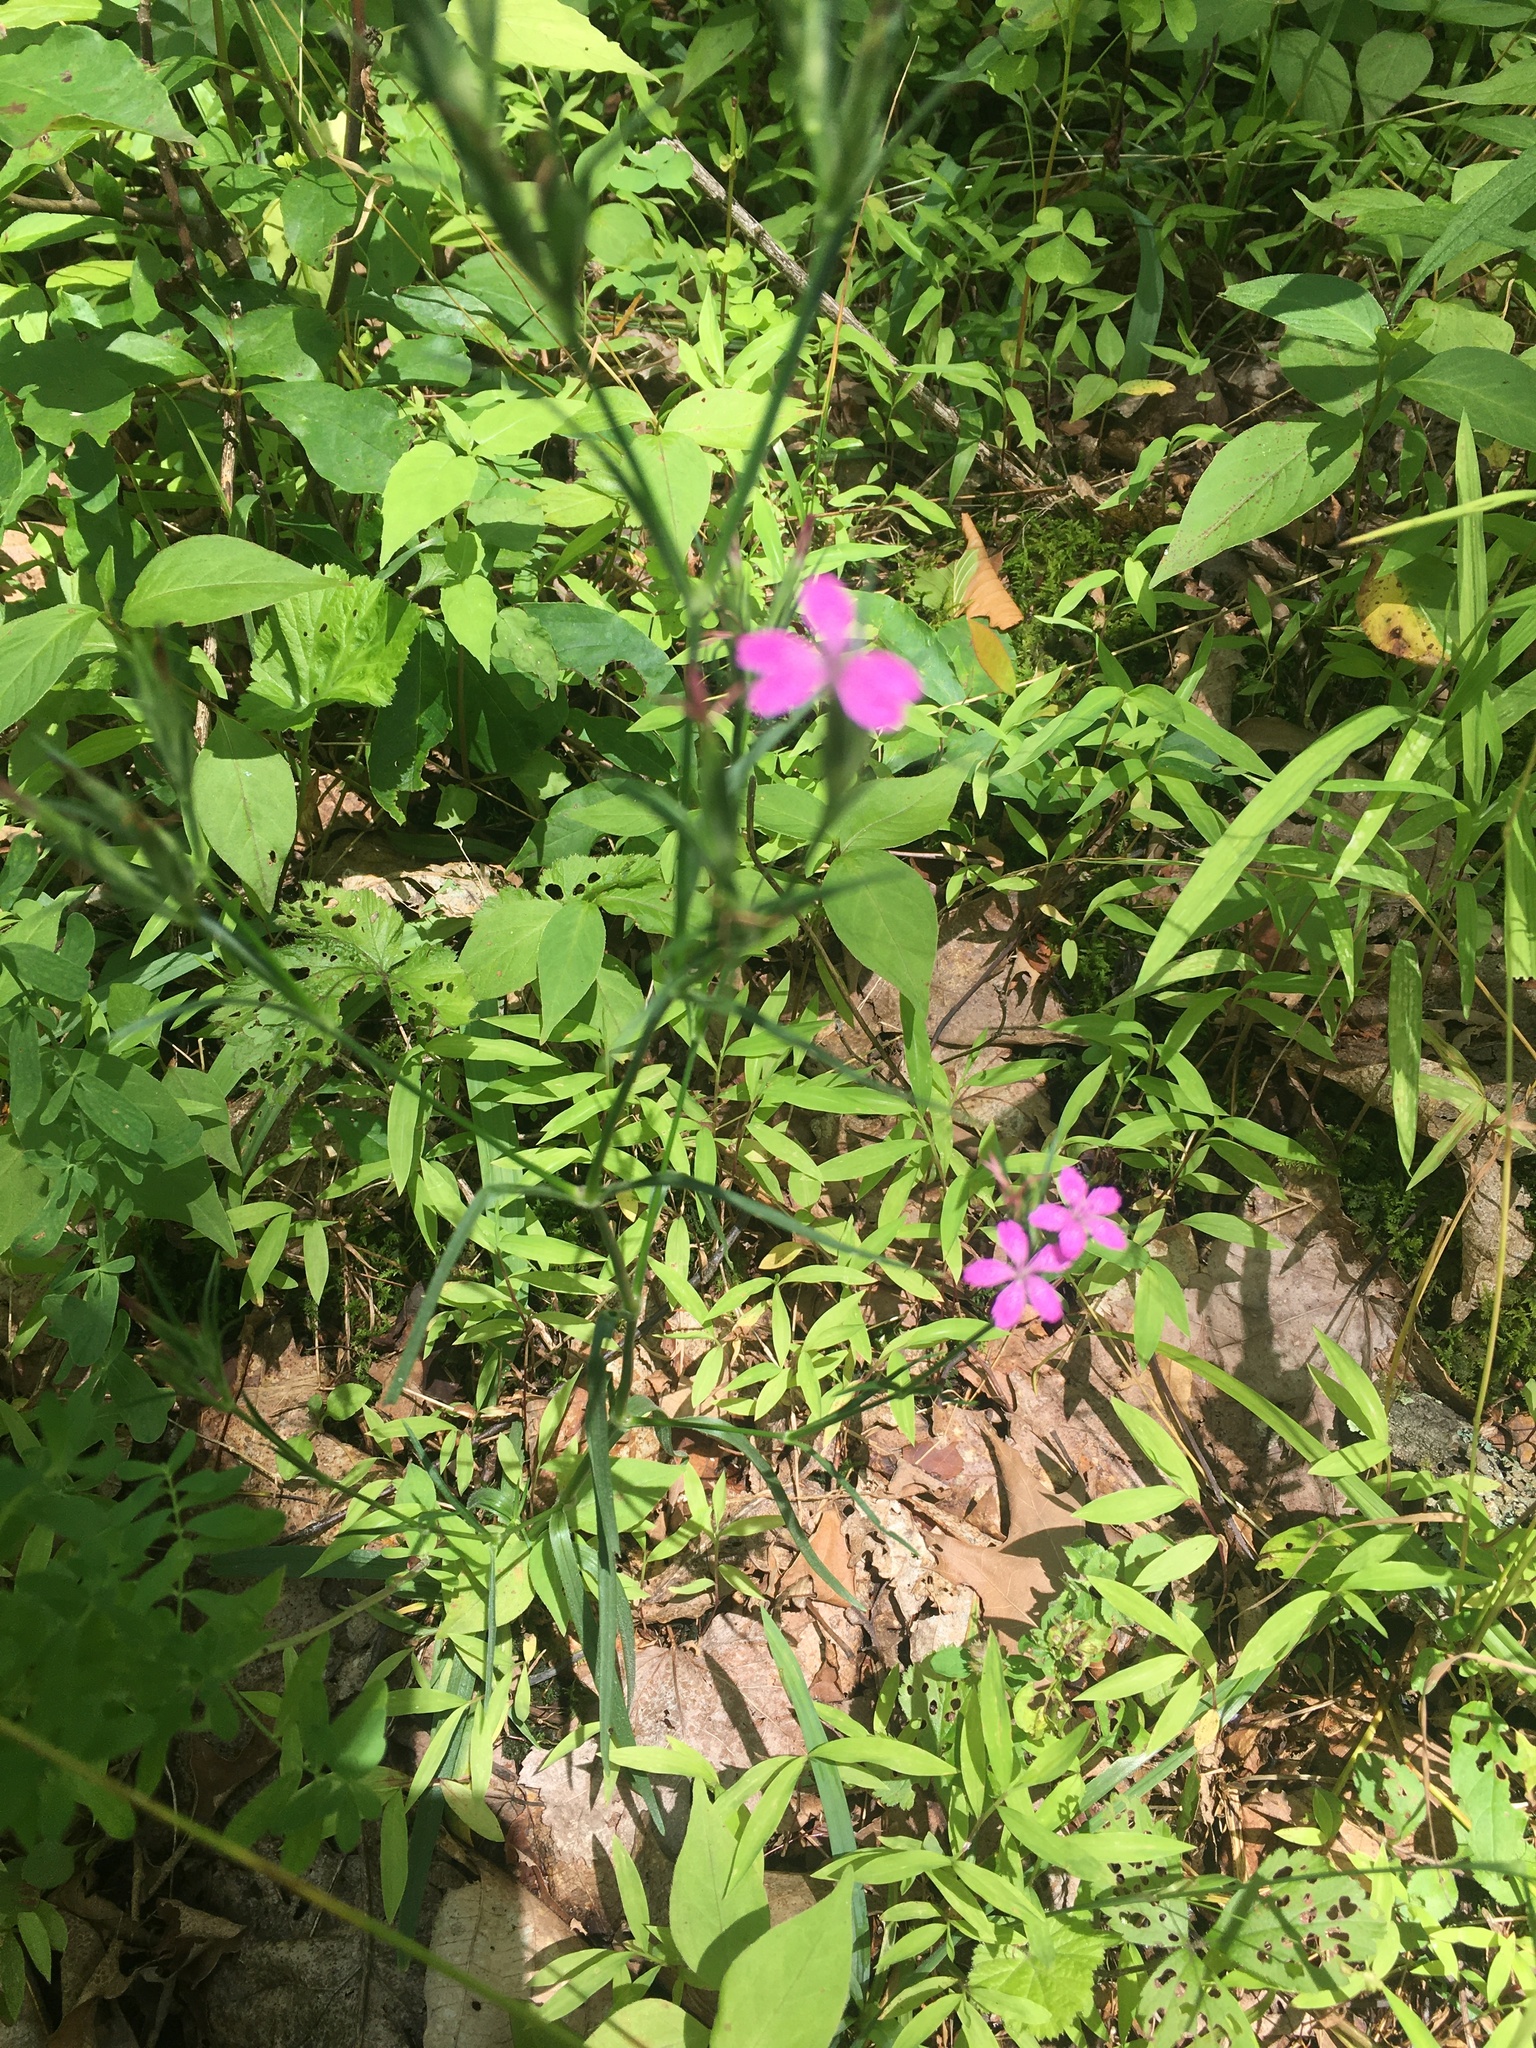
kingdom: Plantae
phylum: Tracheophyta
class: Magnoliopsida
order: Caryophyllales
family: Caryophyllaceae
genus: Dianthus
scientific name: Dianthus armeria
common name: Deptford pink
